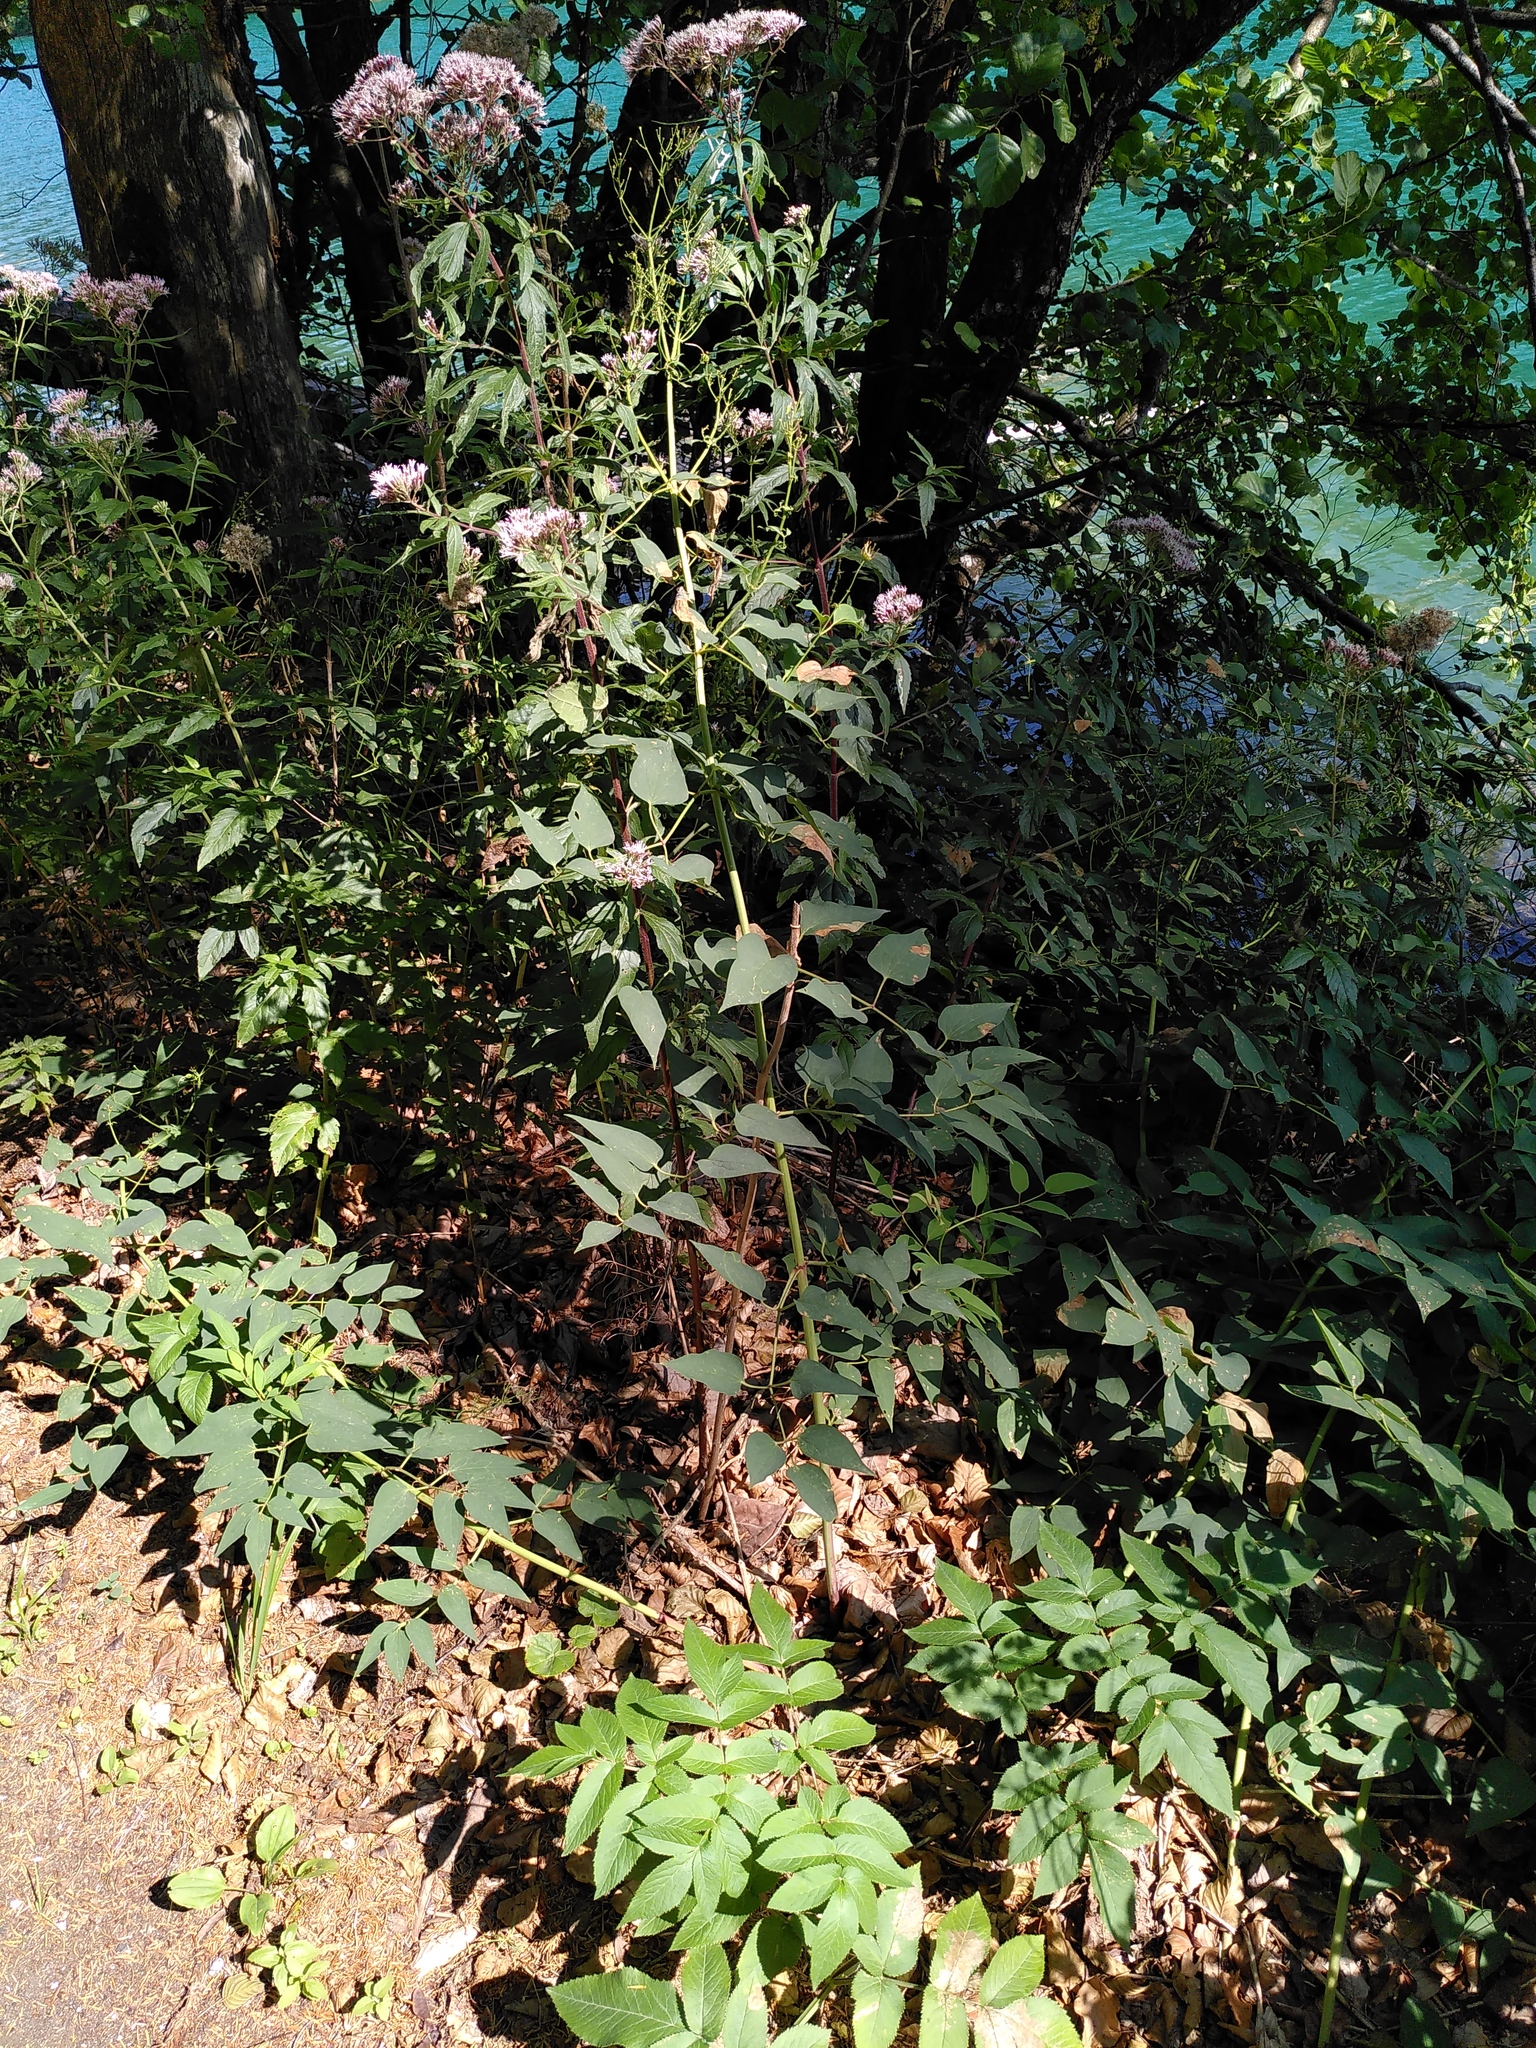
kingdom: Plantae
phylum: Tracheophyta
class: Magnoliopsida
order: Ranunculales
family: Ranunculaceae
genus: Clematis
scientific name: Clematis recta
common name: Ground clematis
